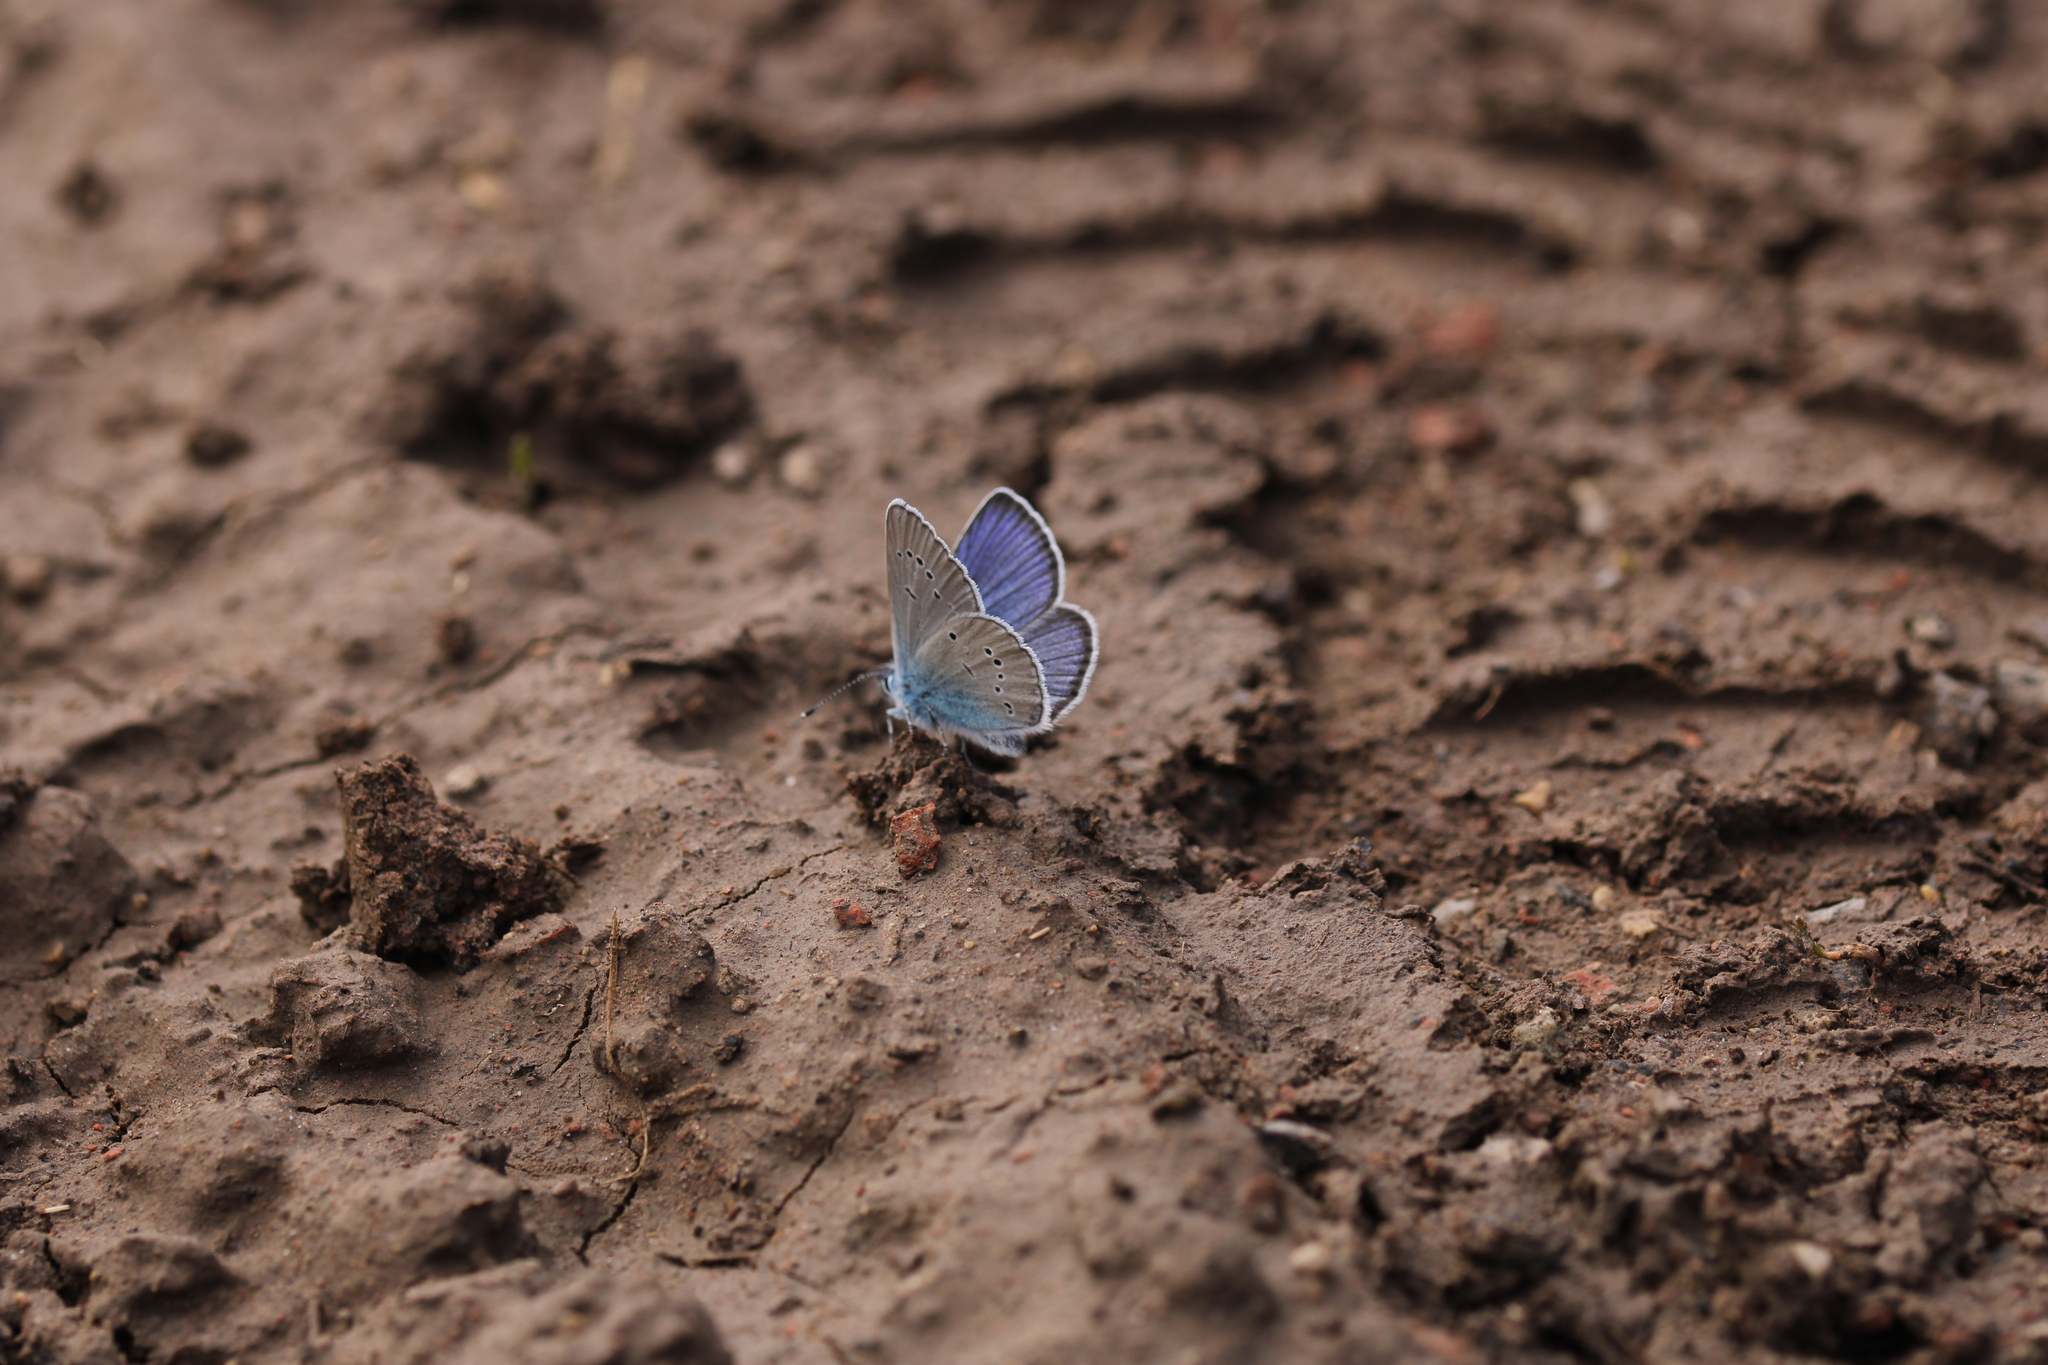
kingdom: Animalia
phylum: Arthropoda
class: Insecta
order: Lepidoptera
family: Lycaenidae
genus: Cyaniris
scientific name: Cyaniris semiargus
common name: Mazarine blue
